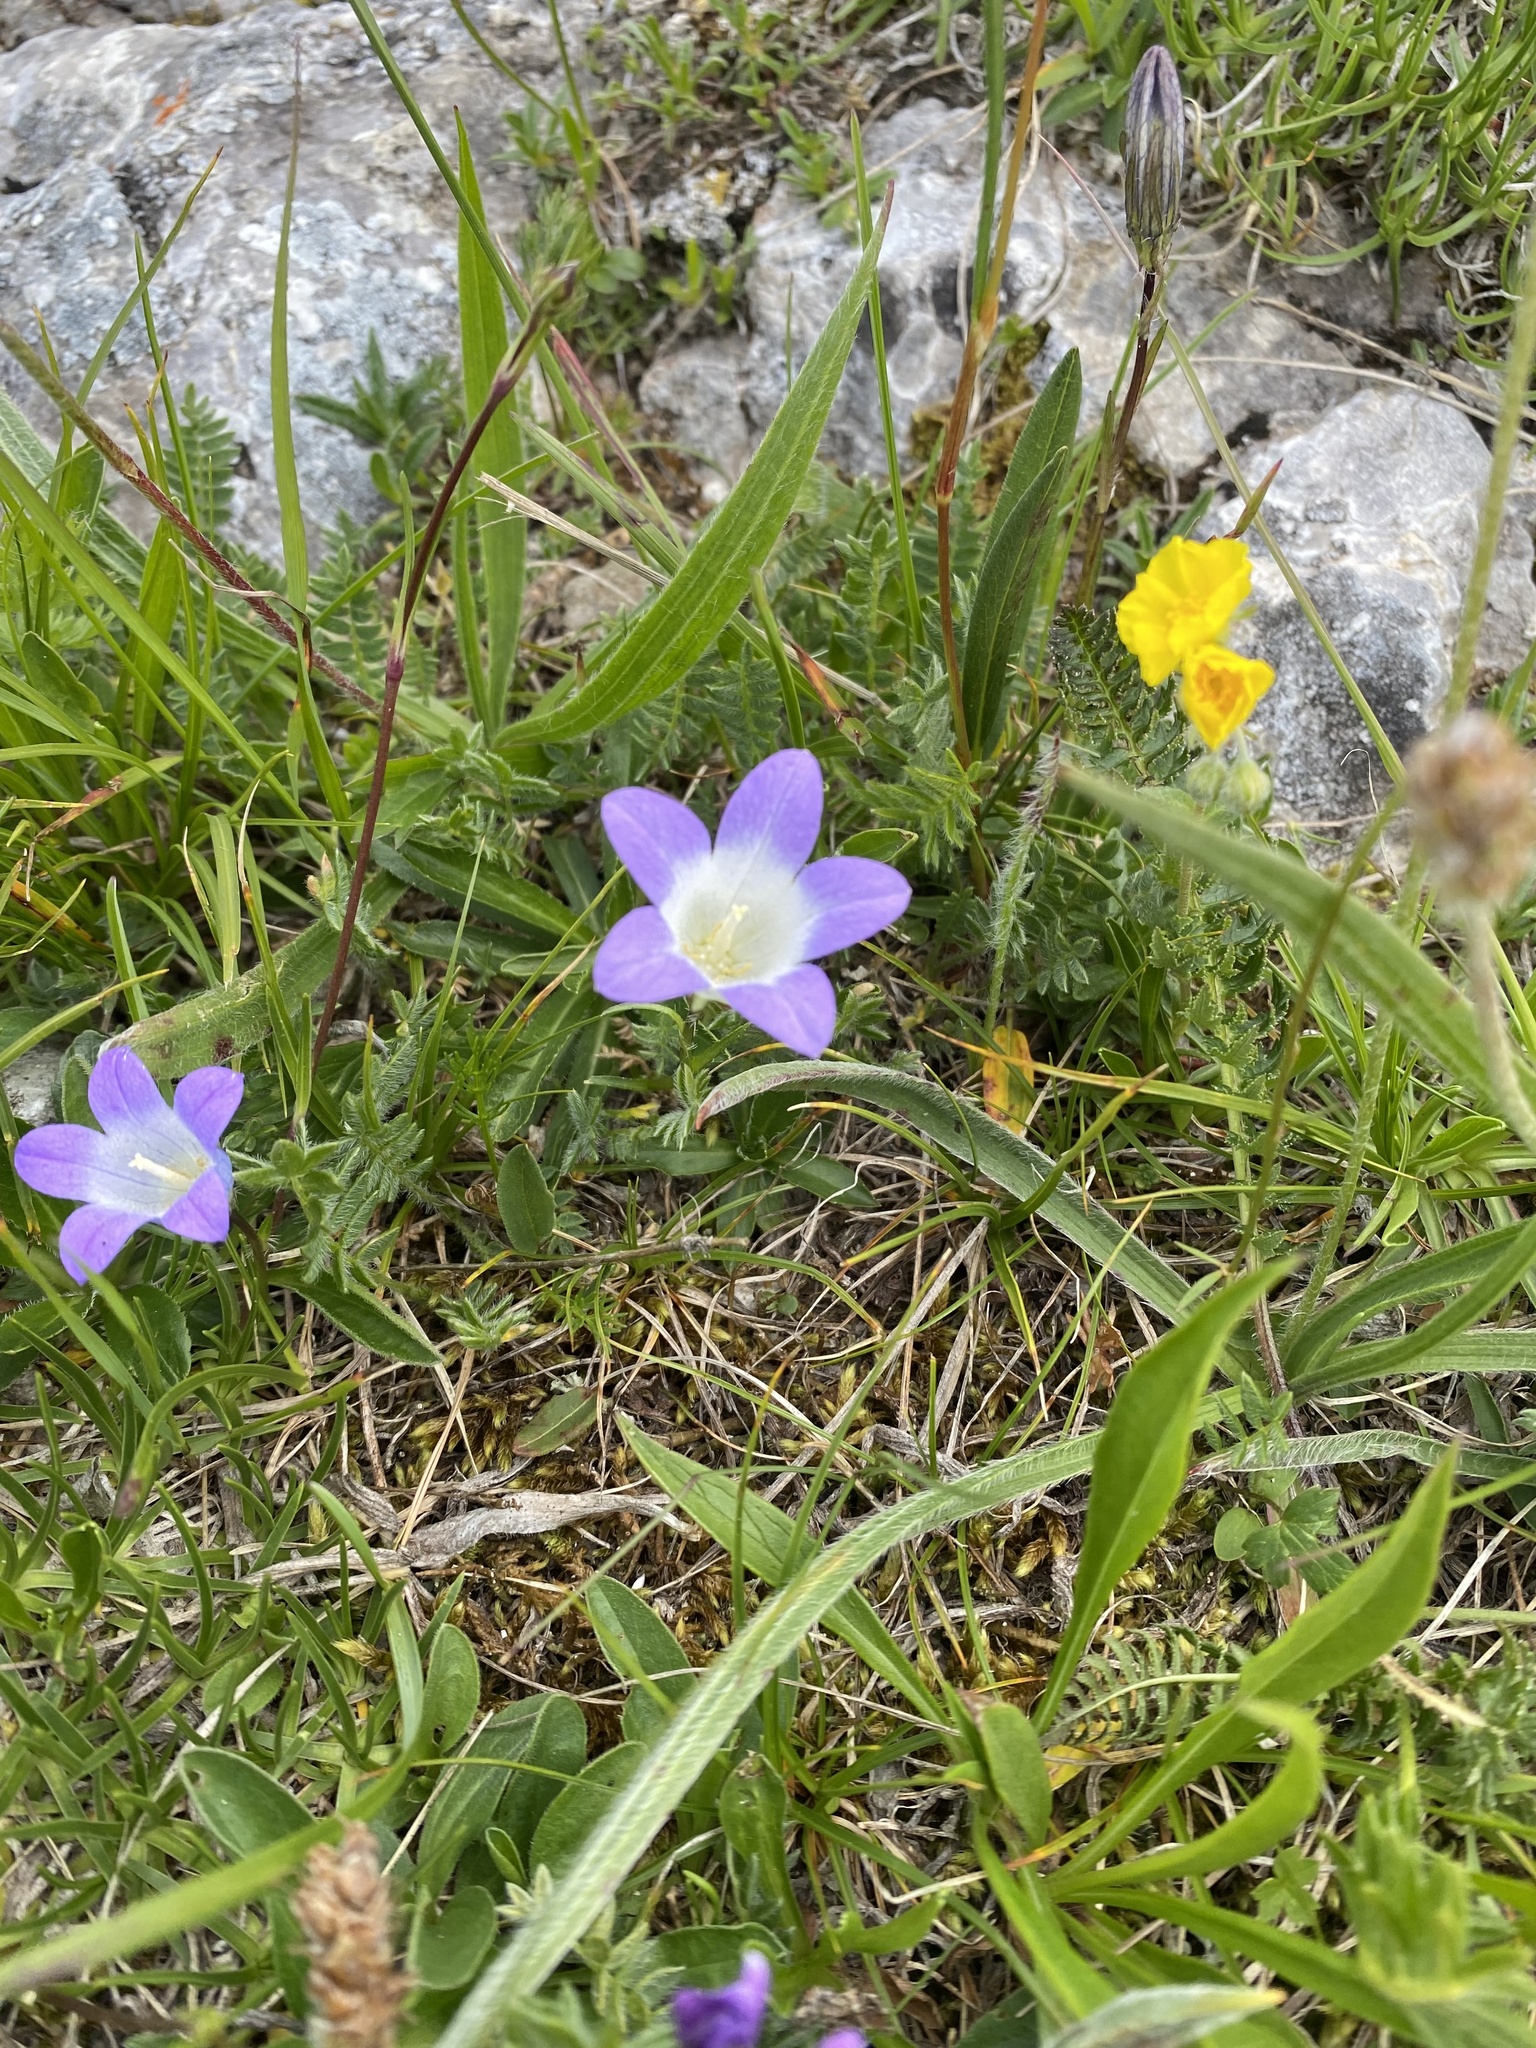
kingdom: Plantae
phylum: Tracheophyta
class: Magnoliopsida
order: Asterales
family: Campanulaceae
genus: Campanula
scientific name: Campanula ciliata
